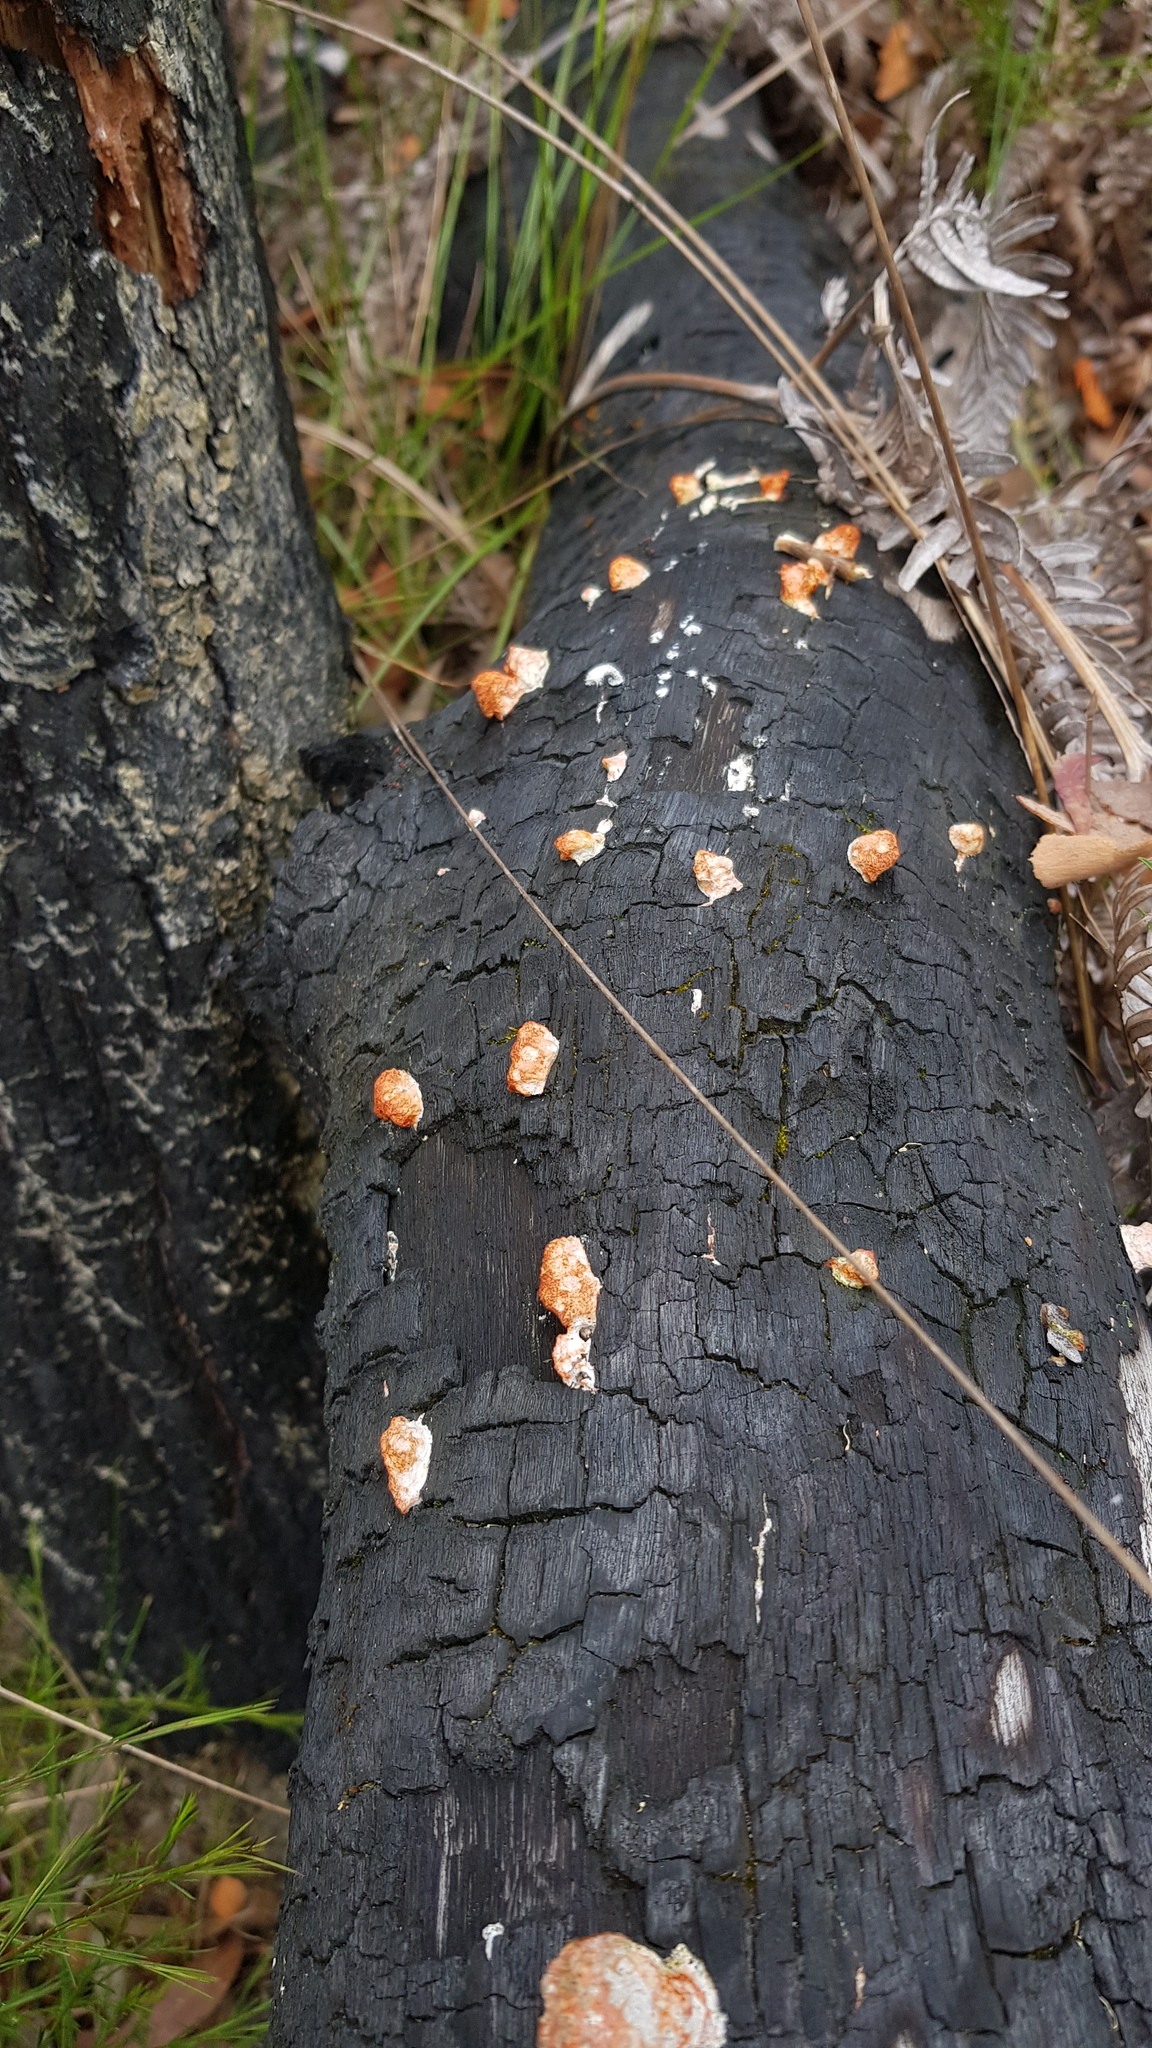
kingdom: Fungi
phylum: Basidiomycota
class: Agaricomycetes
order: Polyporales
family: Polyporaceae
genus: Trametes
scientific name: Trametes coccinea
